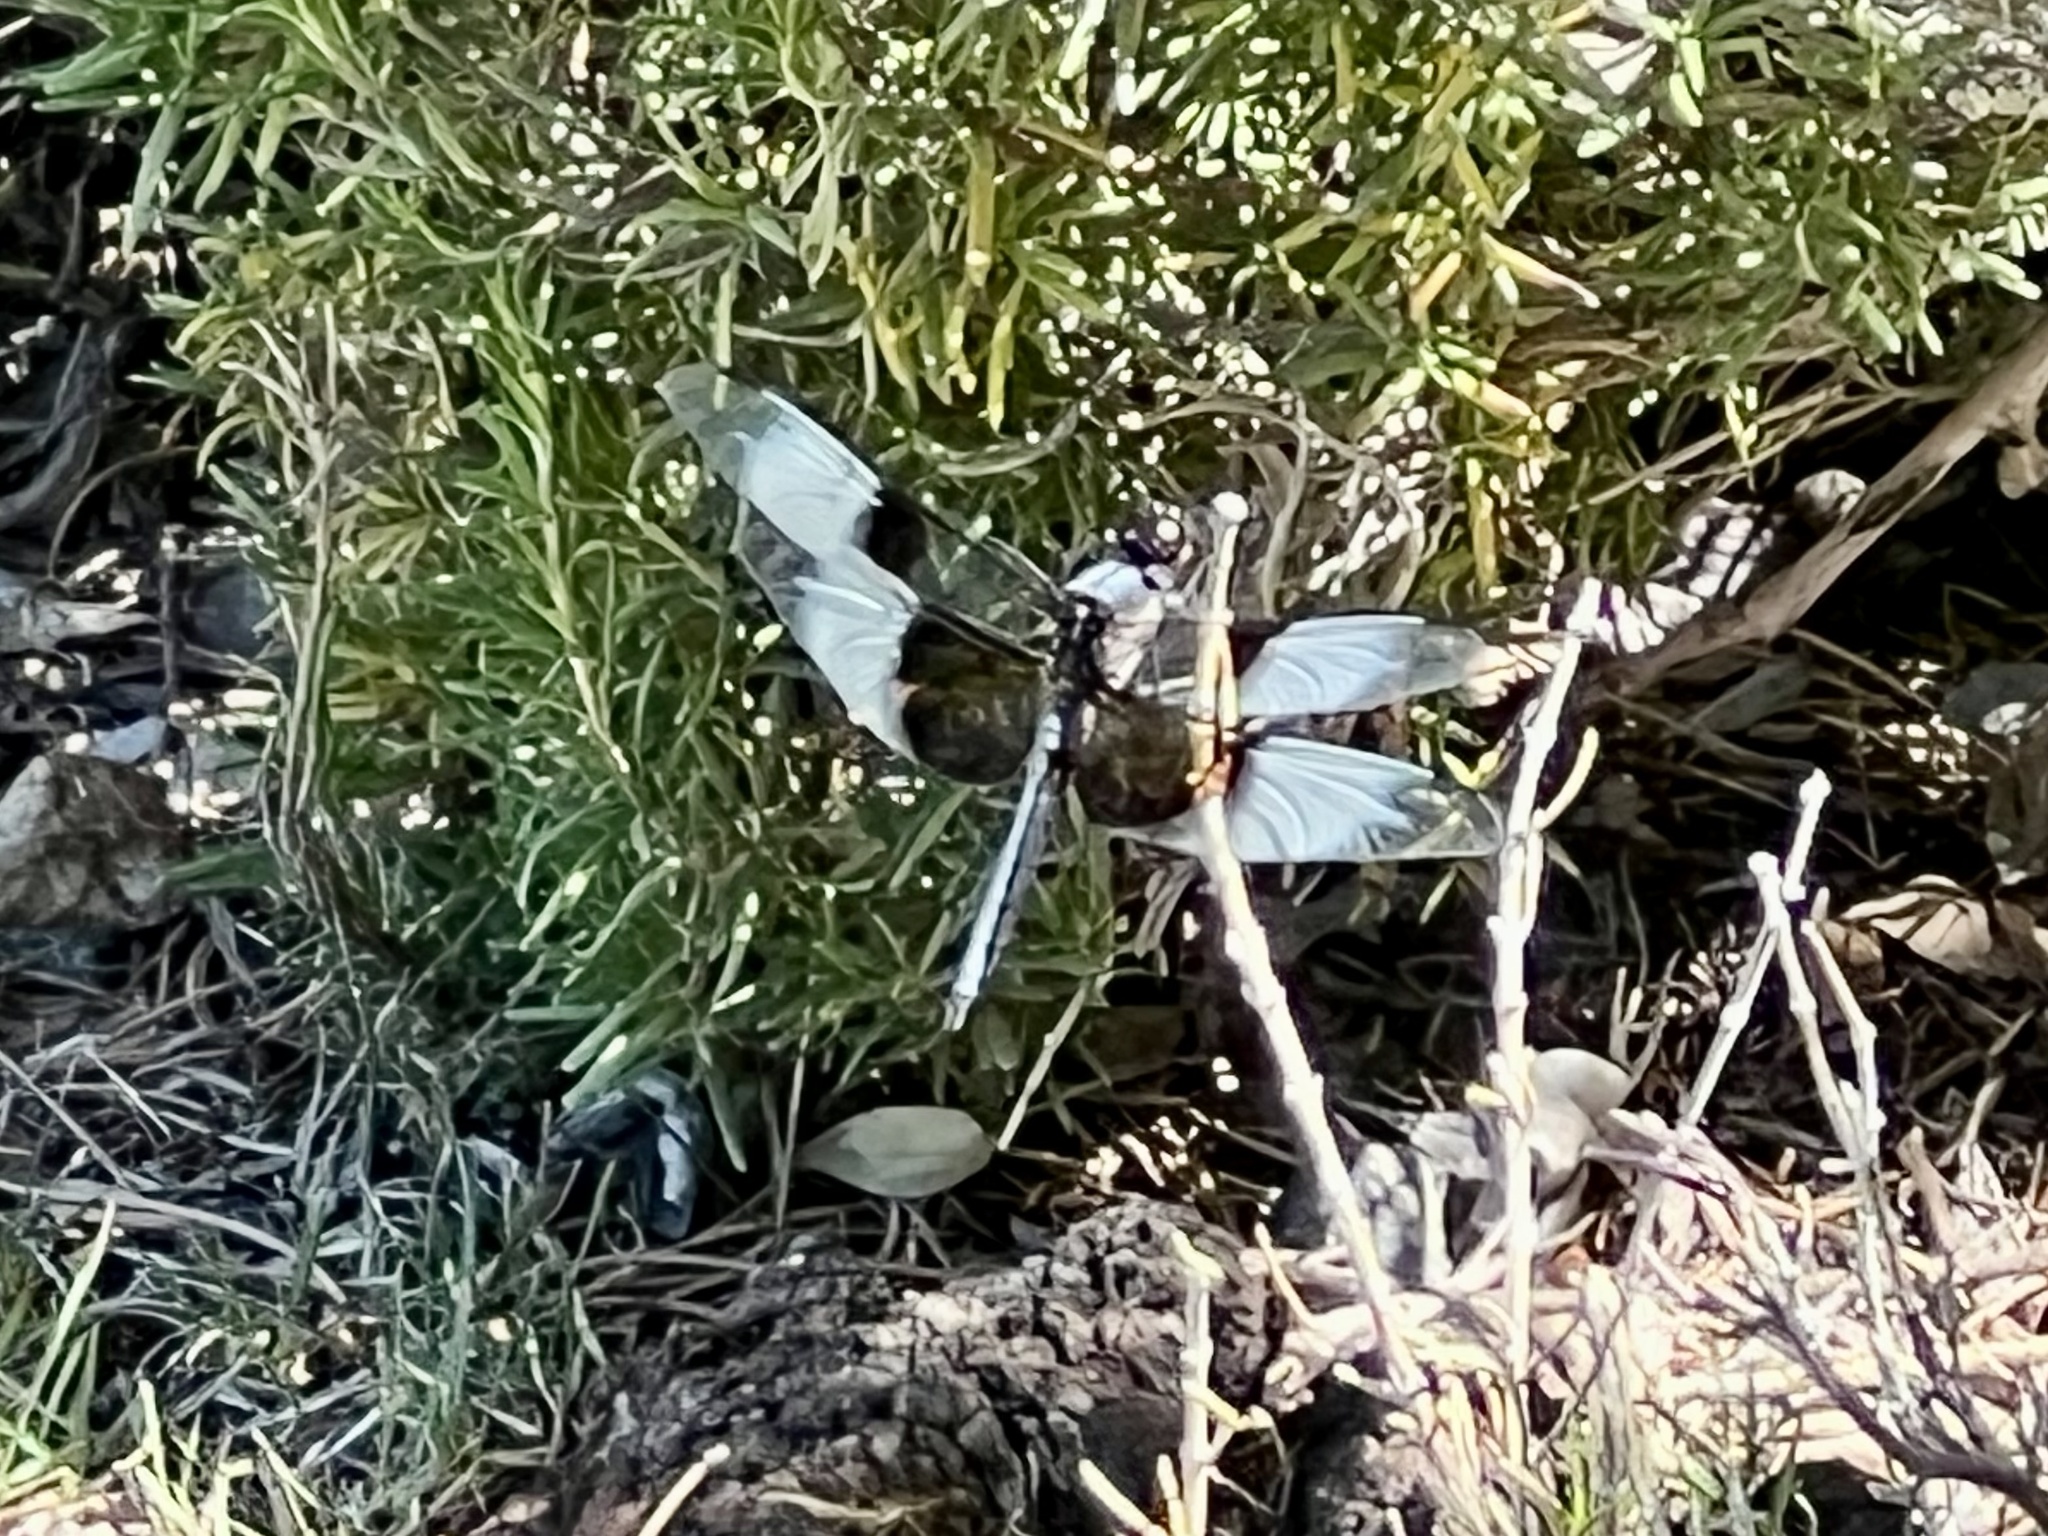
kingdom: Animalia
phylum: Arthropoda
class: Insecta
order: Odonata
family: Libellulidae
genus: Libellula
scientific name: Libellula luctuosa
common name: Widow skimmer
